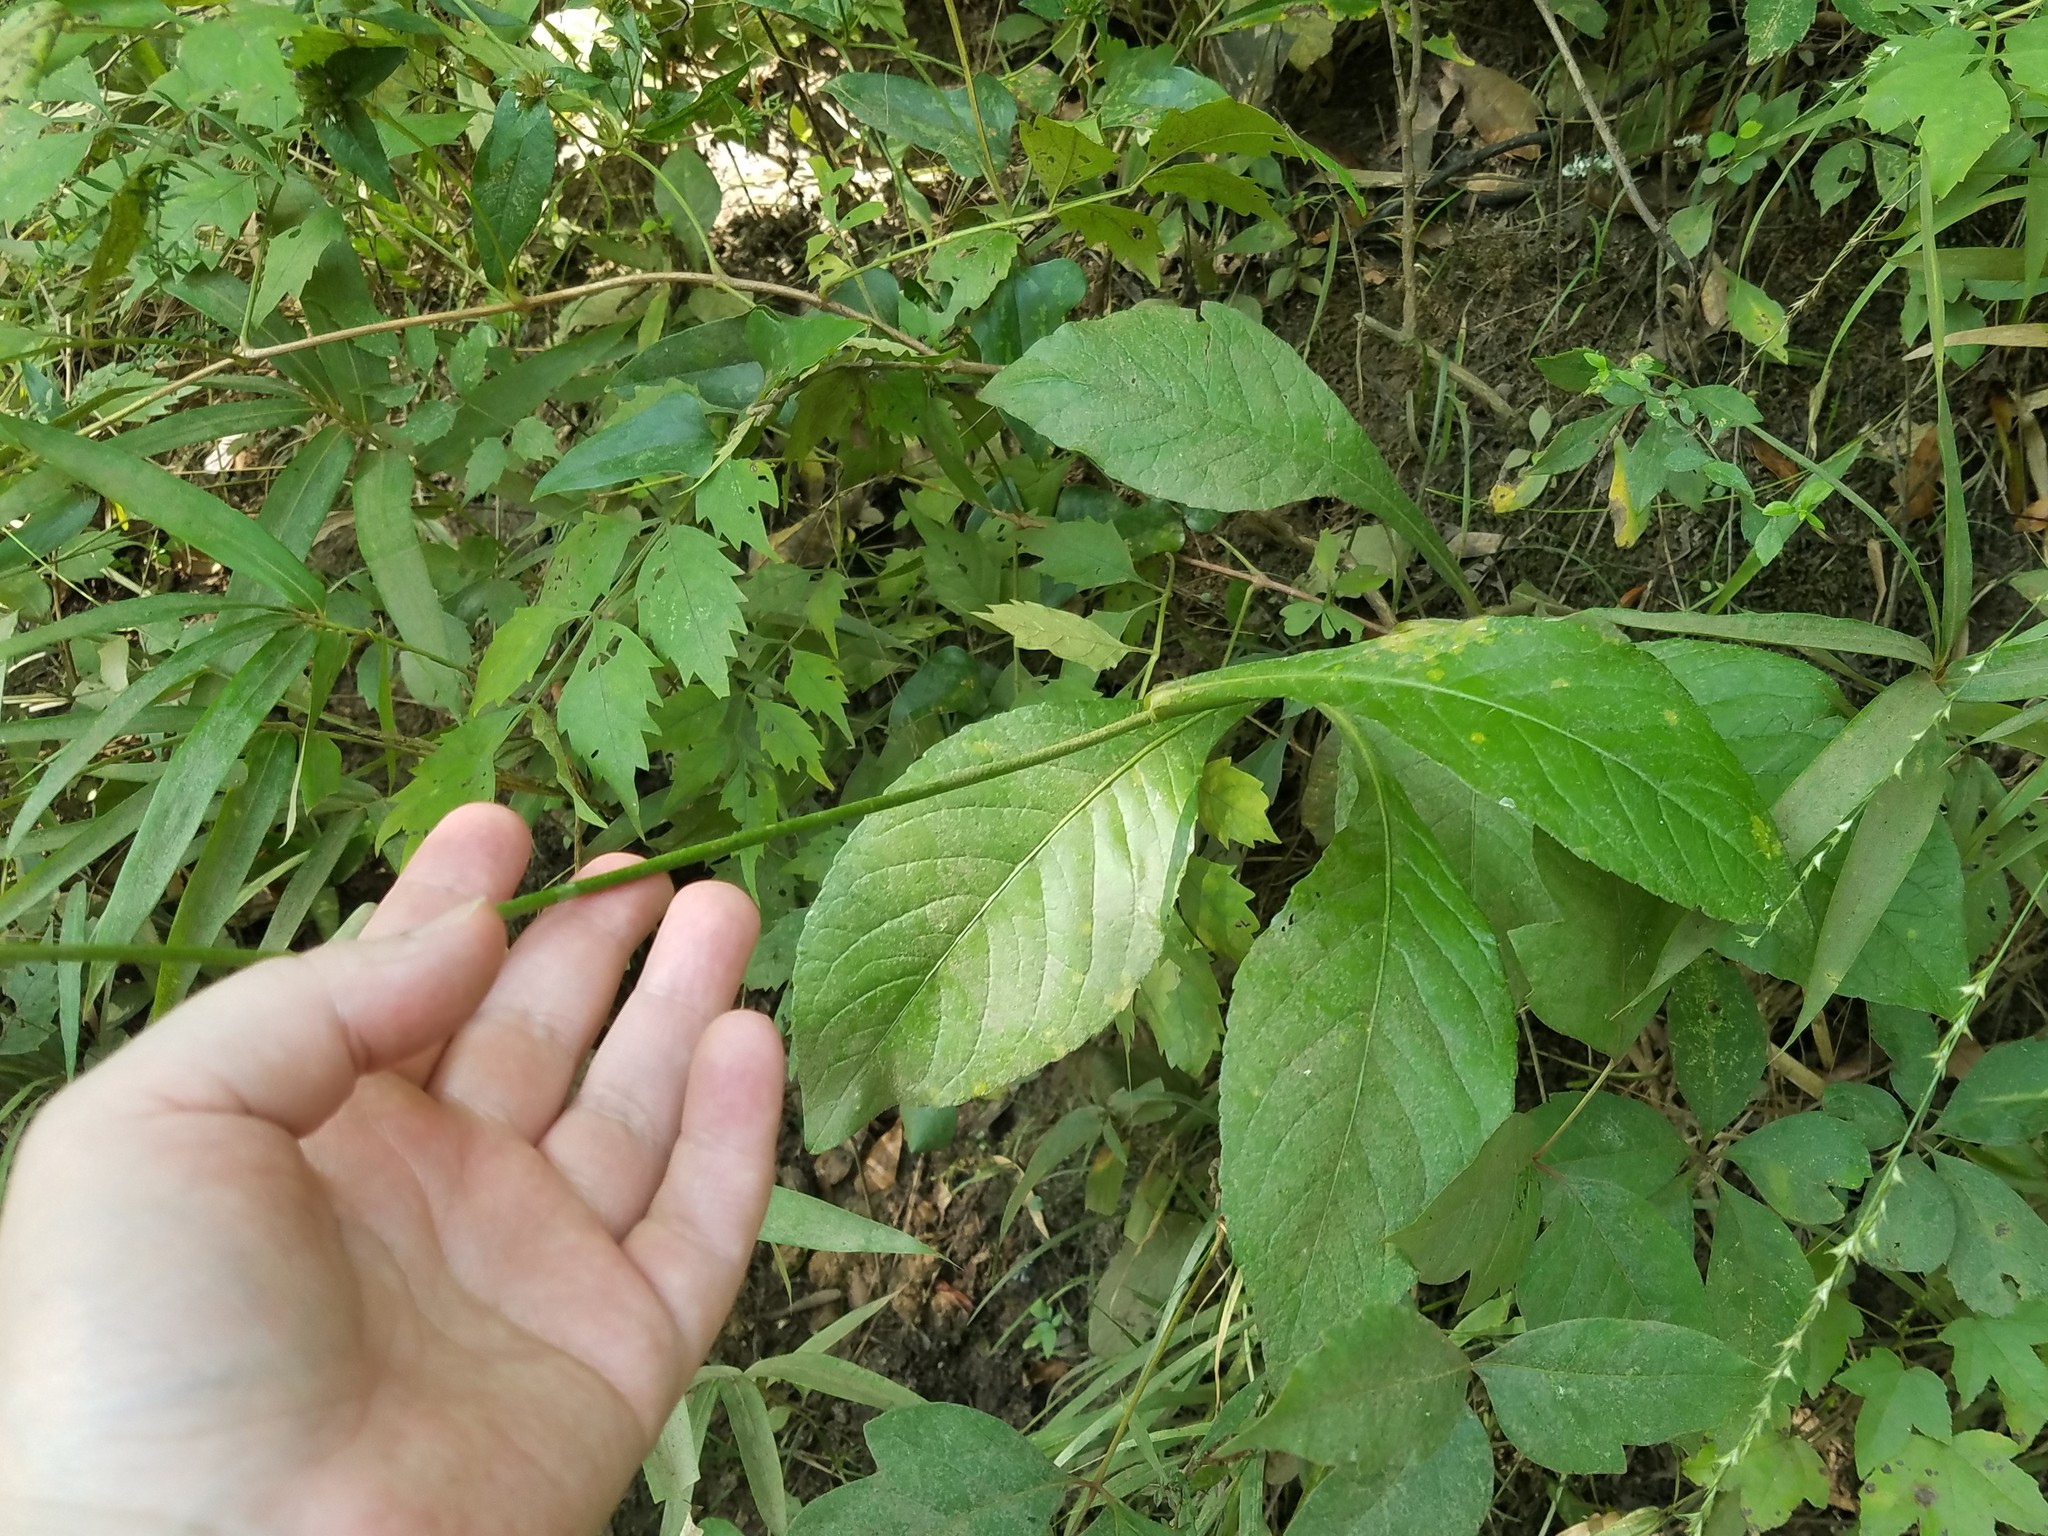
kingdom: Plantae
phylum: Tracheophyta
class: Magnoliopsida
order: Asterales
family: Asteraceae
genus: Elephantopus
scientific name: Elephantopus carolinianus
